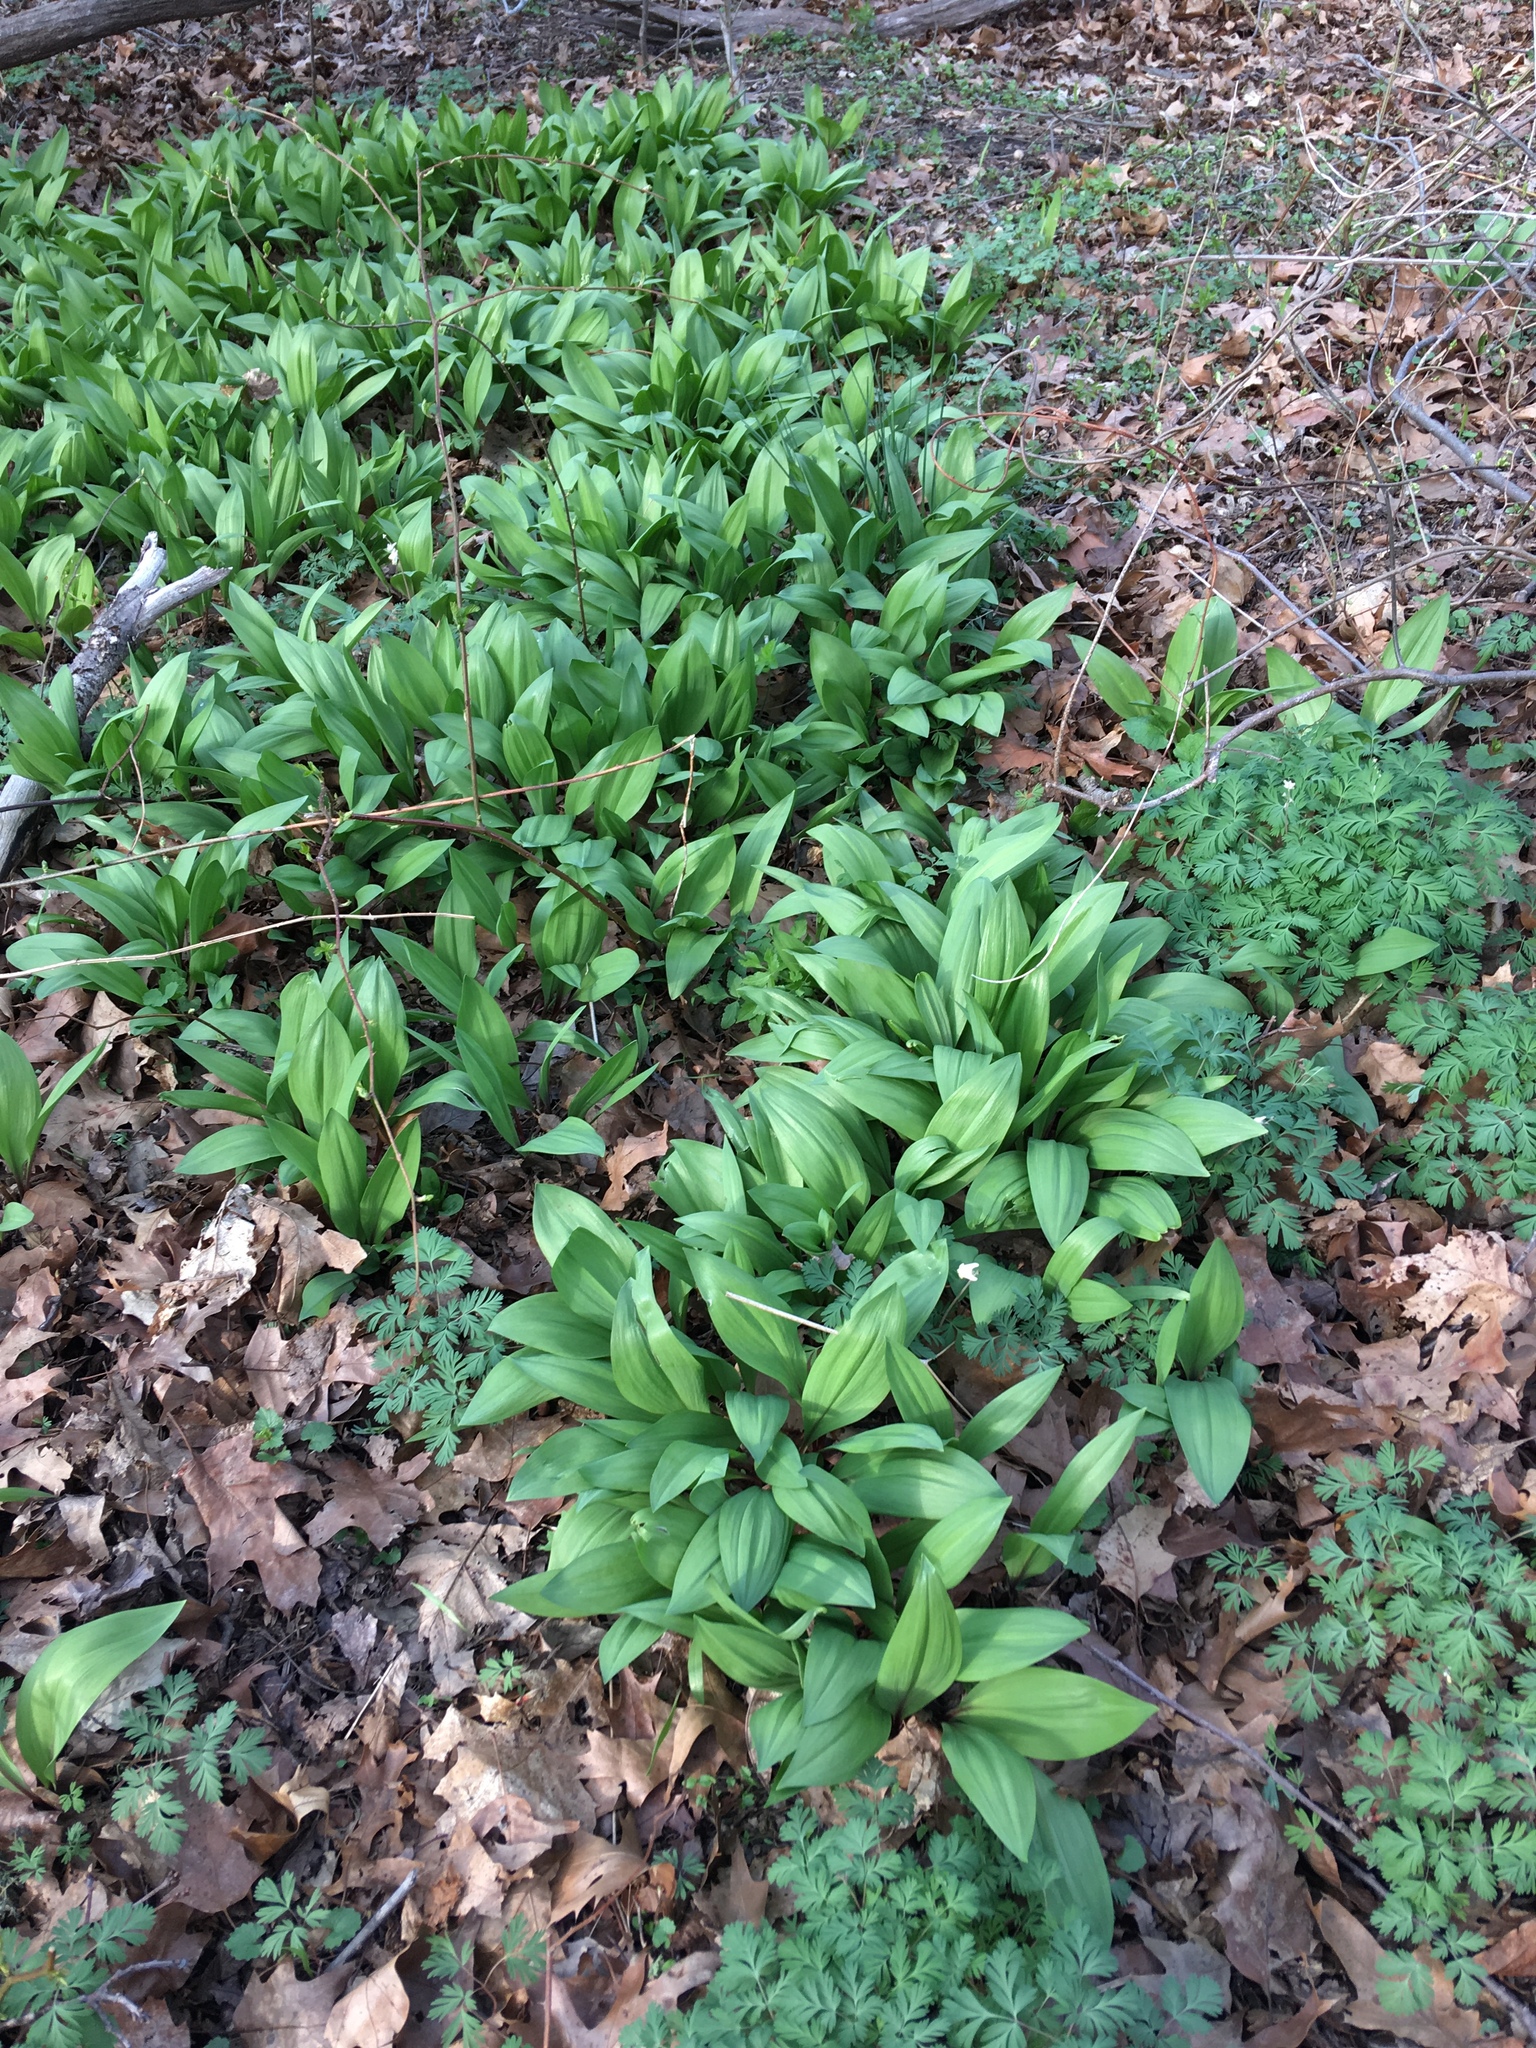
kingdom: Plantae
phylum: Tracheophyta
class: Liliopsida
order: Asparagales
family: Amaryllidaceae
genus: Allium
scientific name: Allium tricoccum
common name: Ramp
